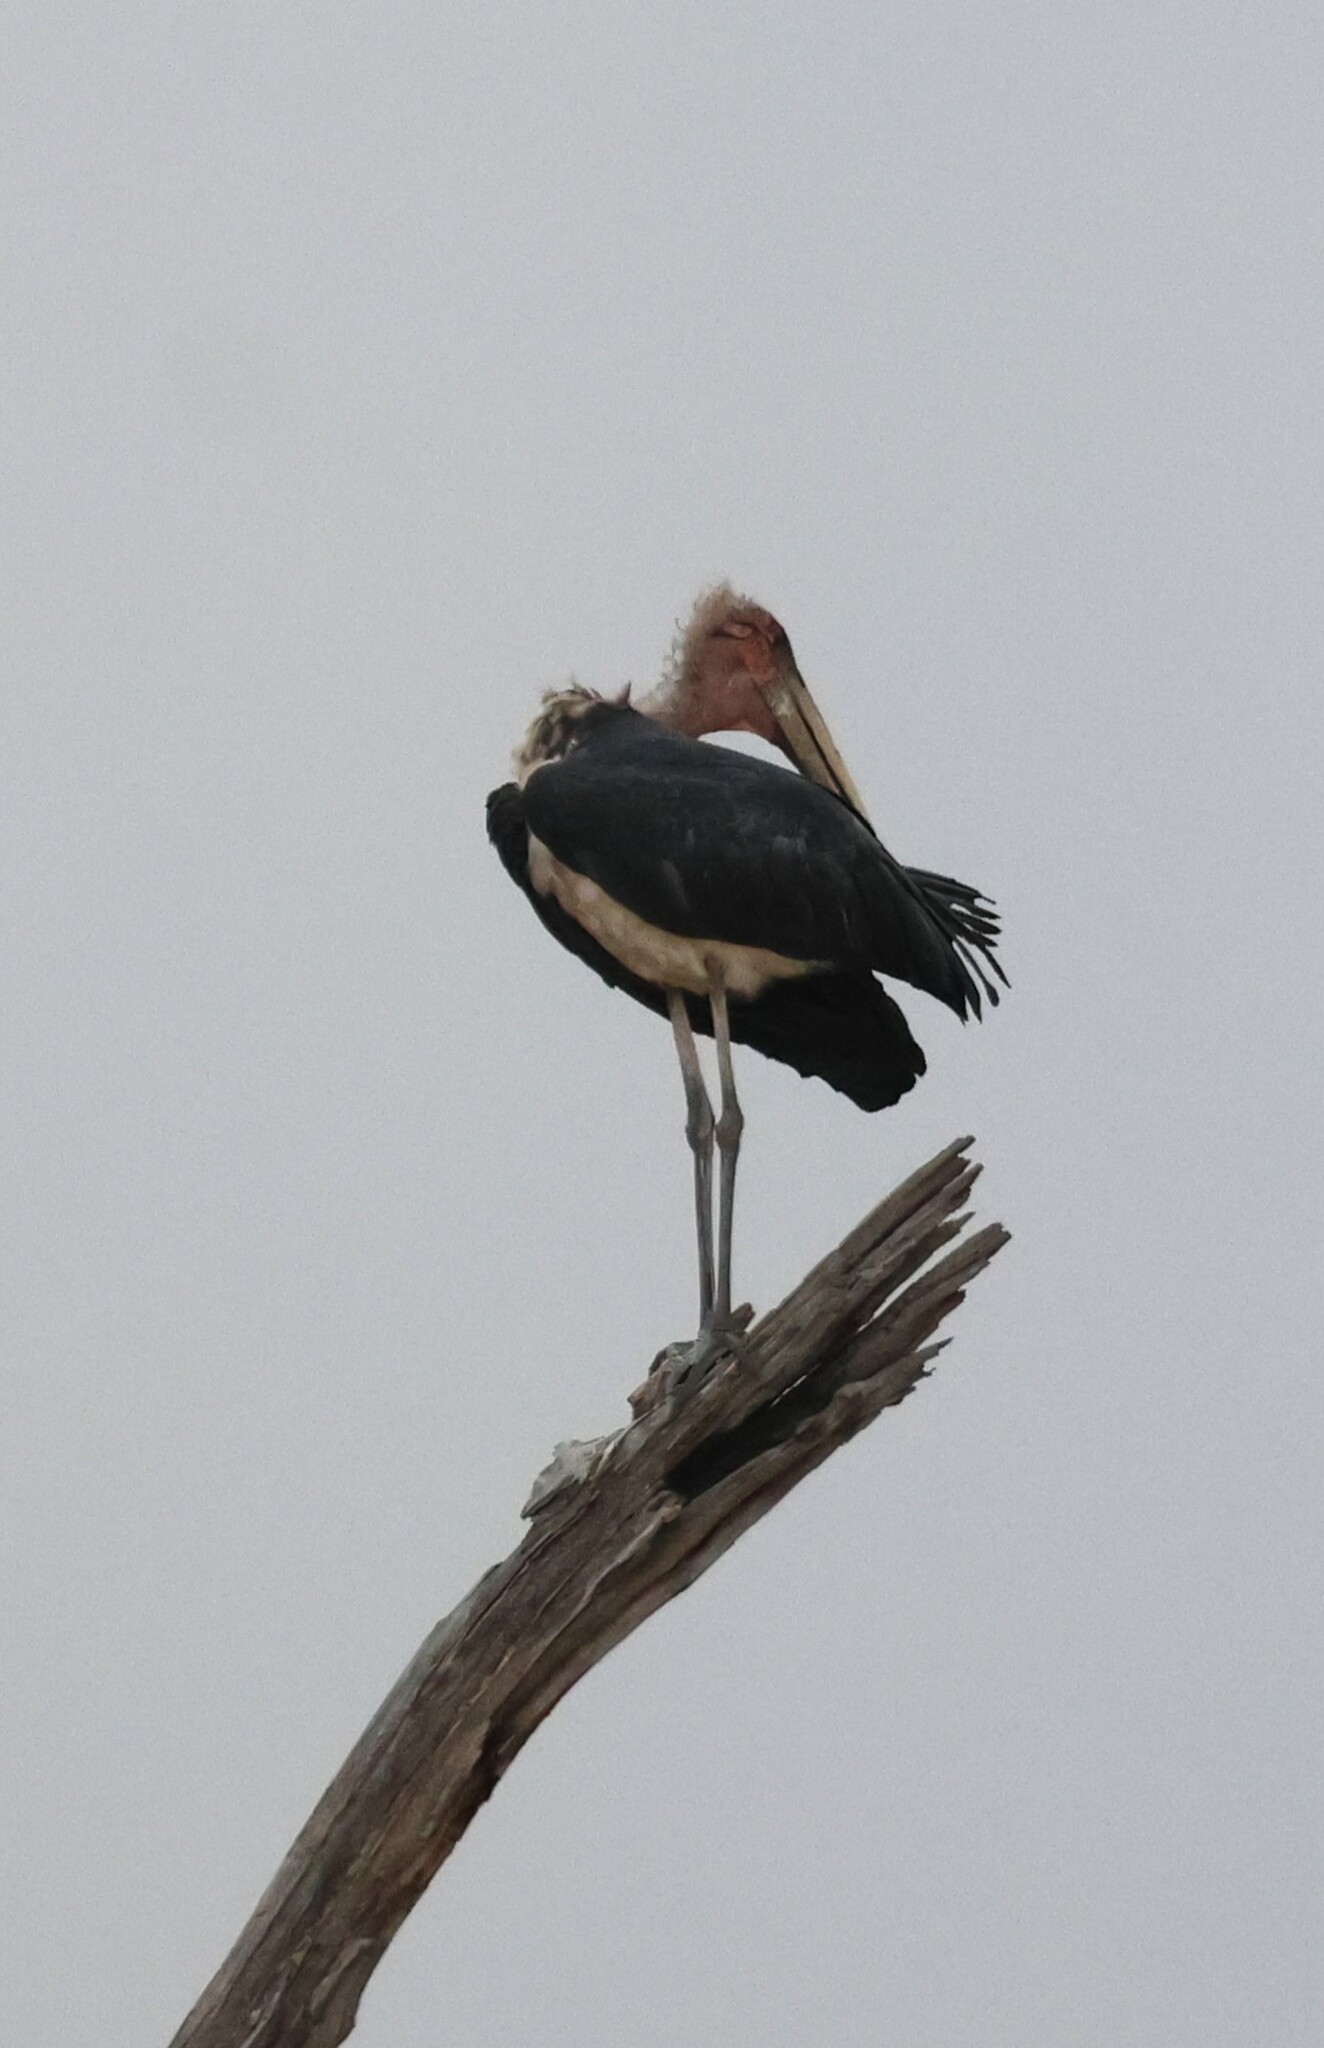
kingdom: Animalia
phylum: Chordata
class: Aves
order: Ciconiiformes
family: Ciconiidae
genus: Leptoptilos
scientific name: Leptoptilos crumenifer
